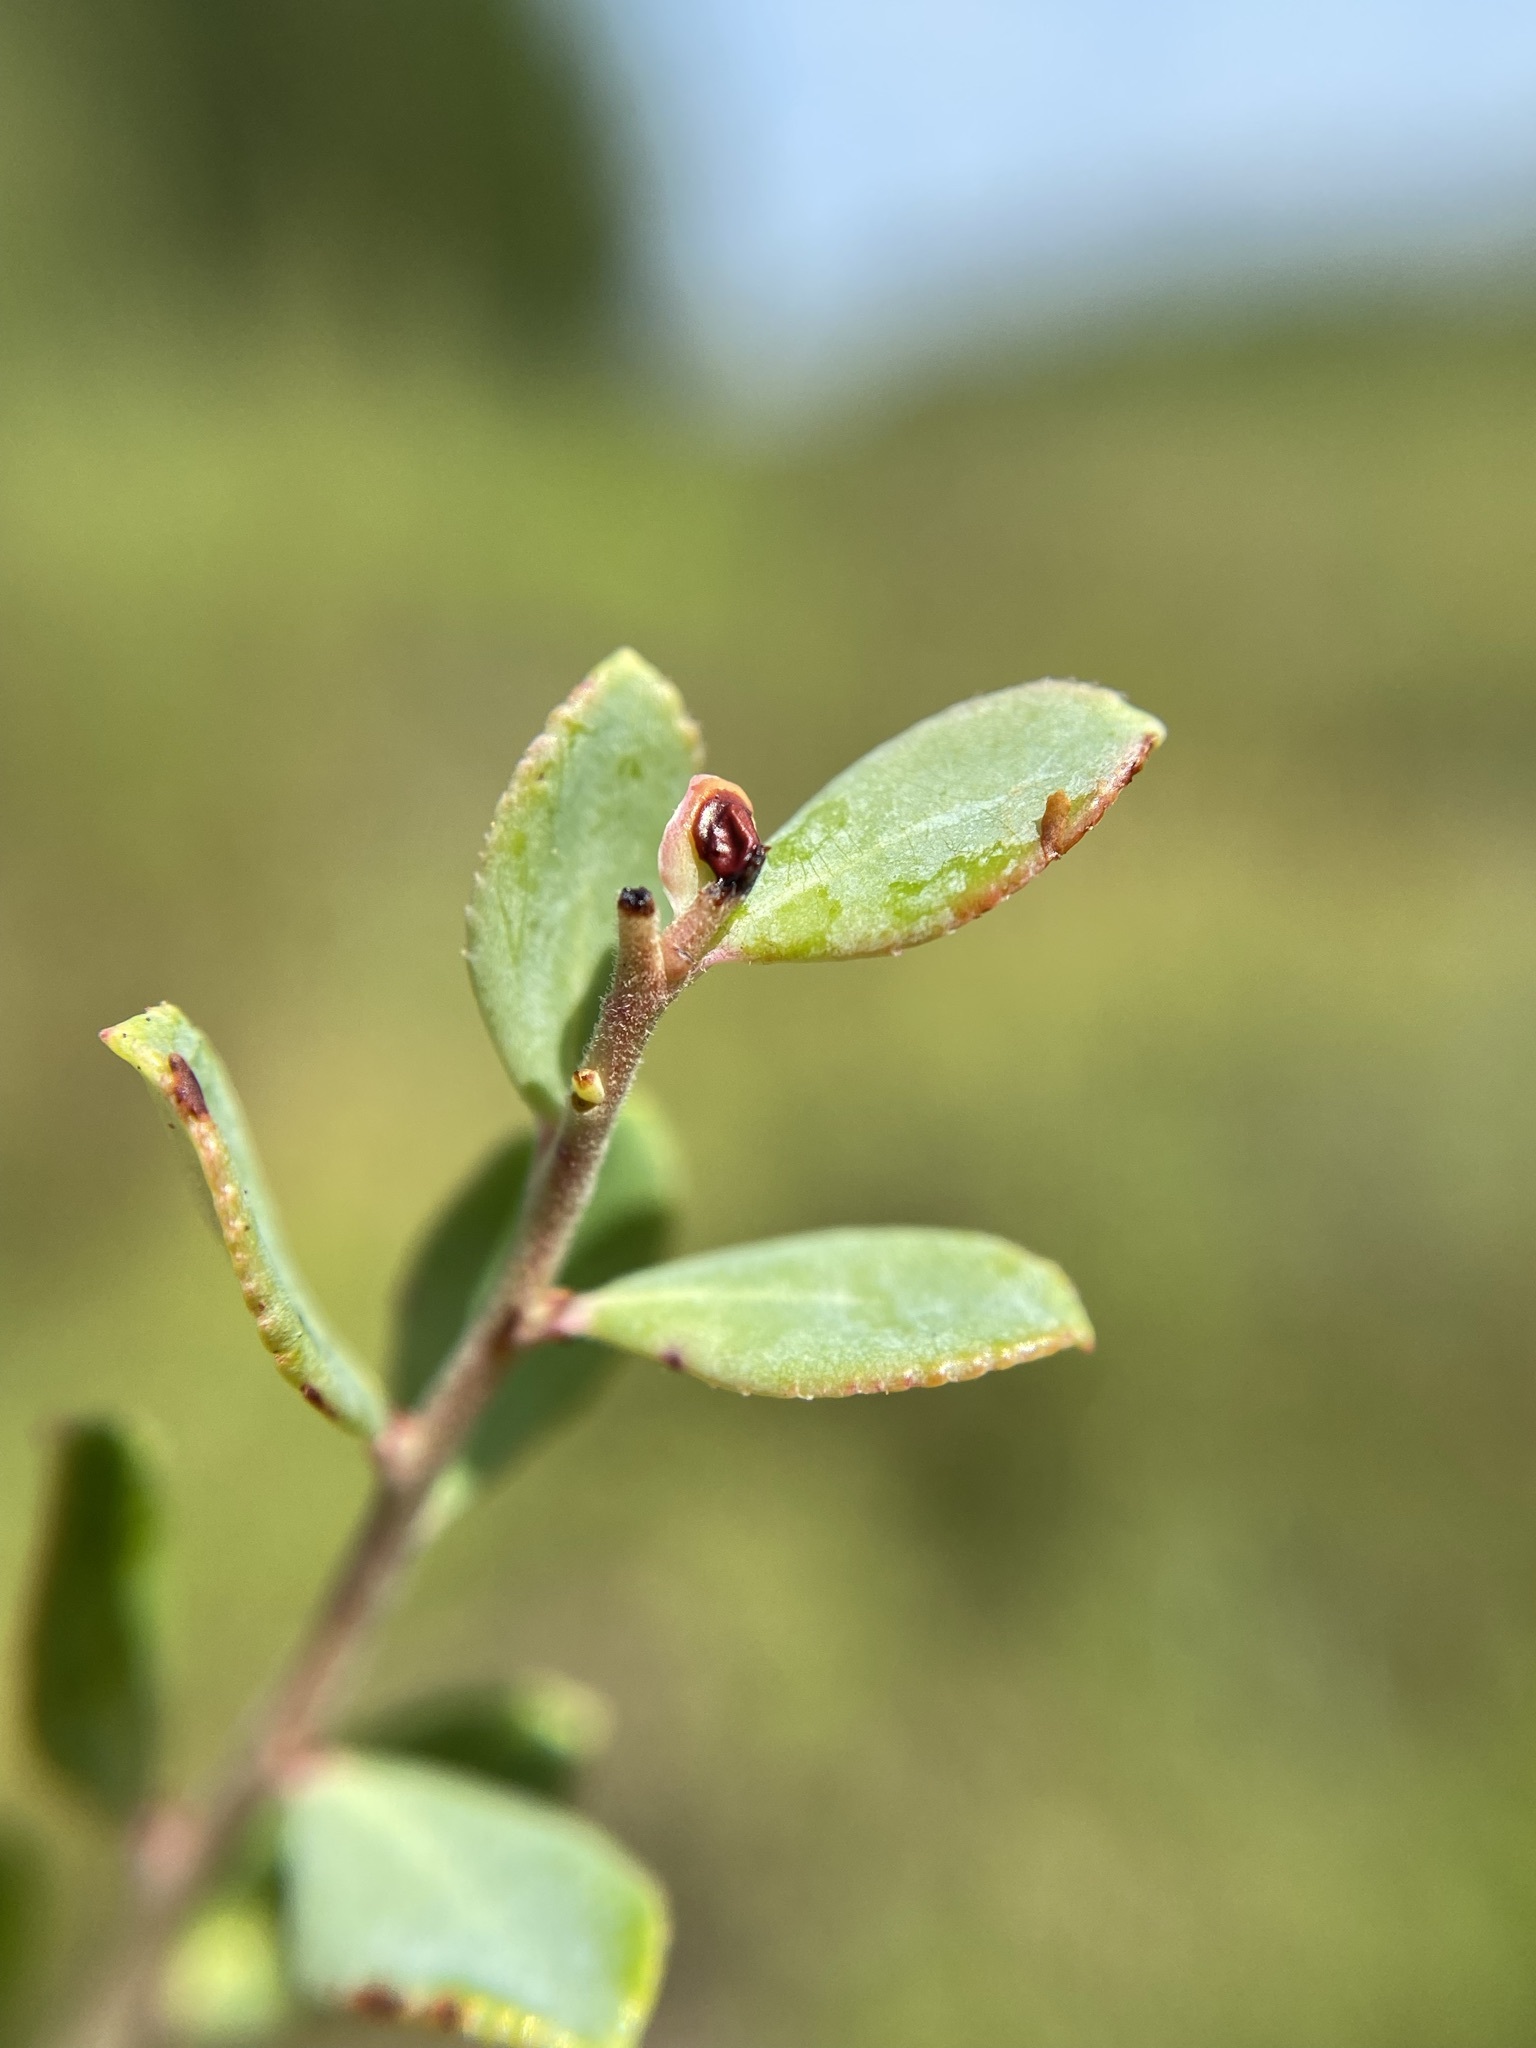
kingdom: Plantae
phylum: Tracheophyta
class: Magnoliopsida
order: Ericales
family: Ericaceae
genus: Vaccinium
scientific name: Vaccinium darrowii
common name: Darrow's blueberry
